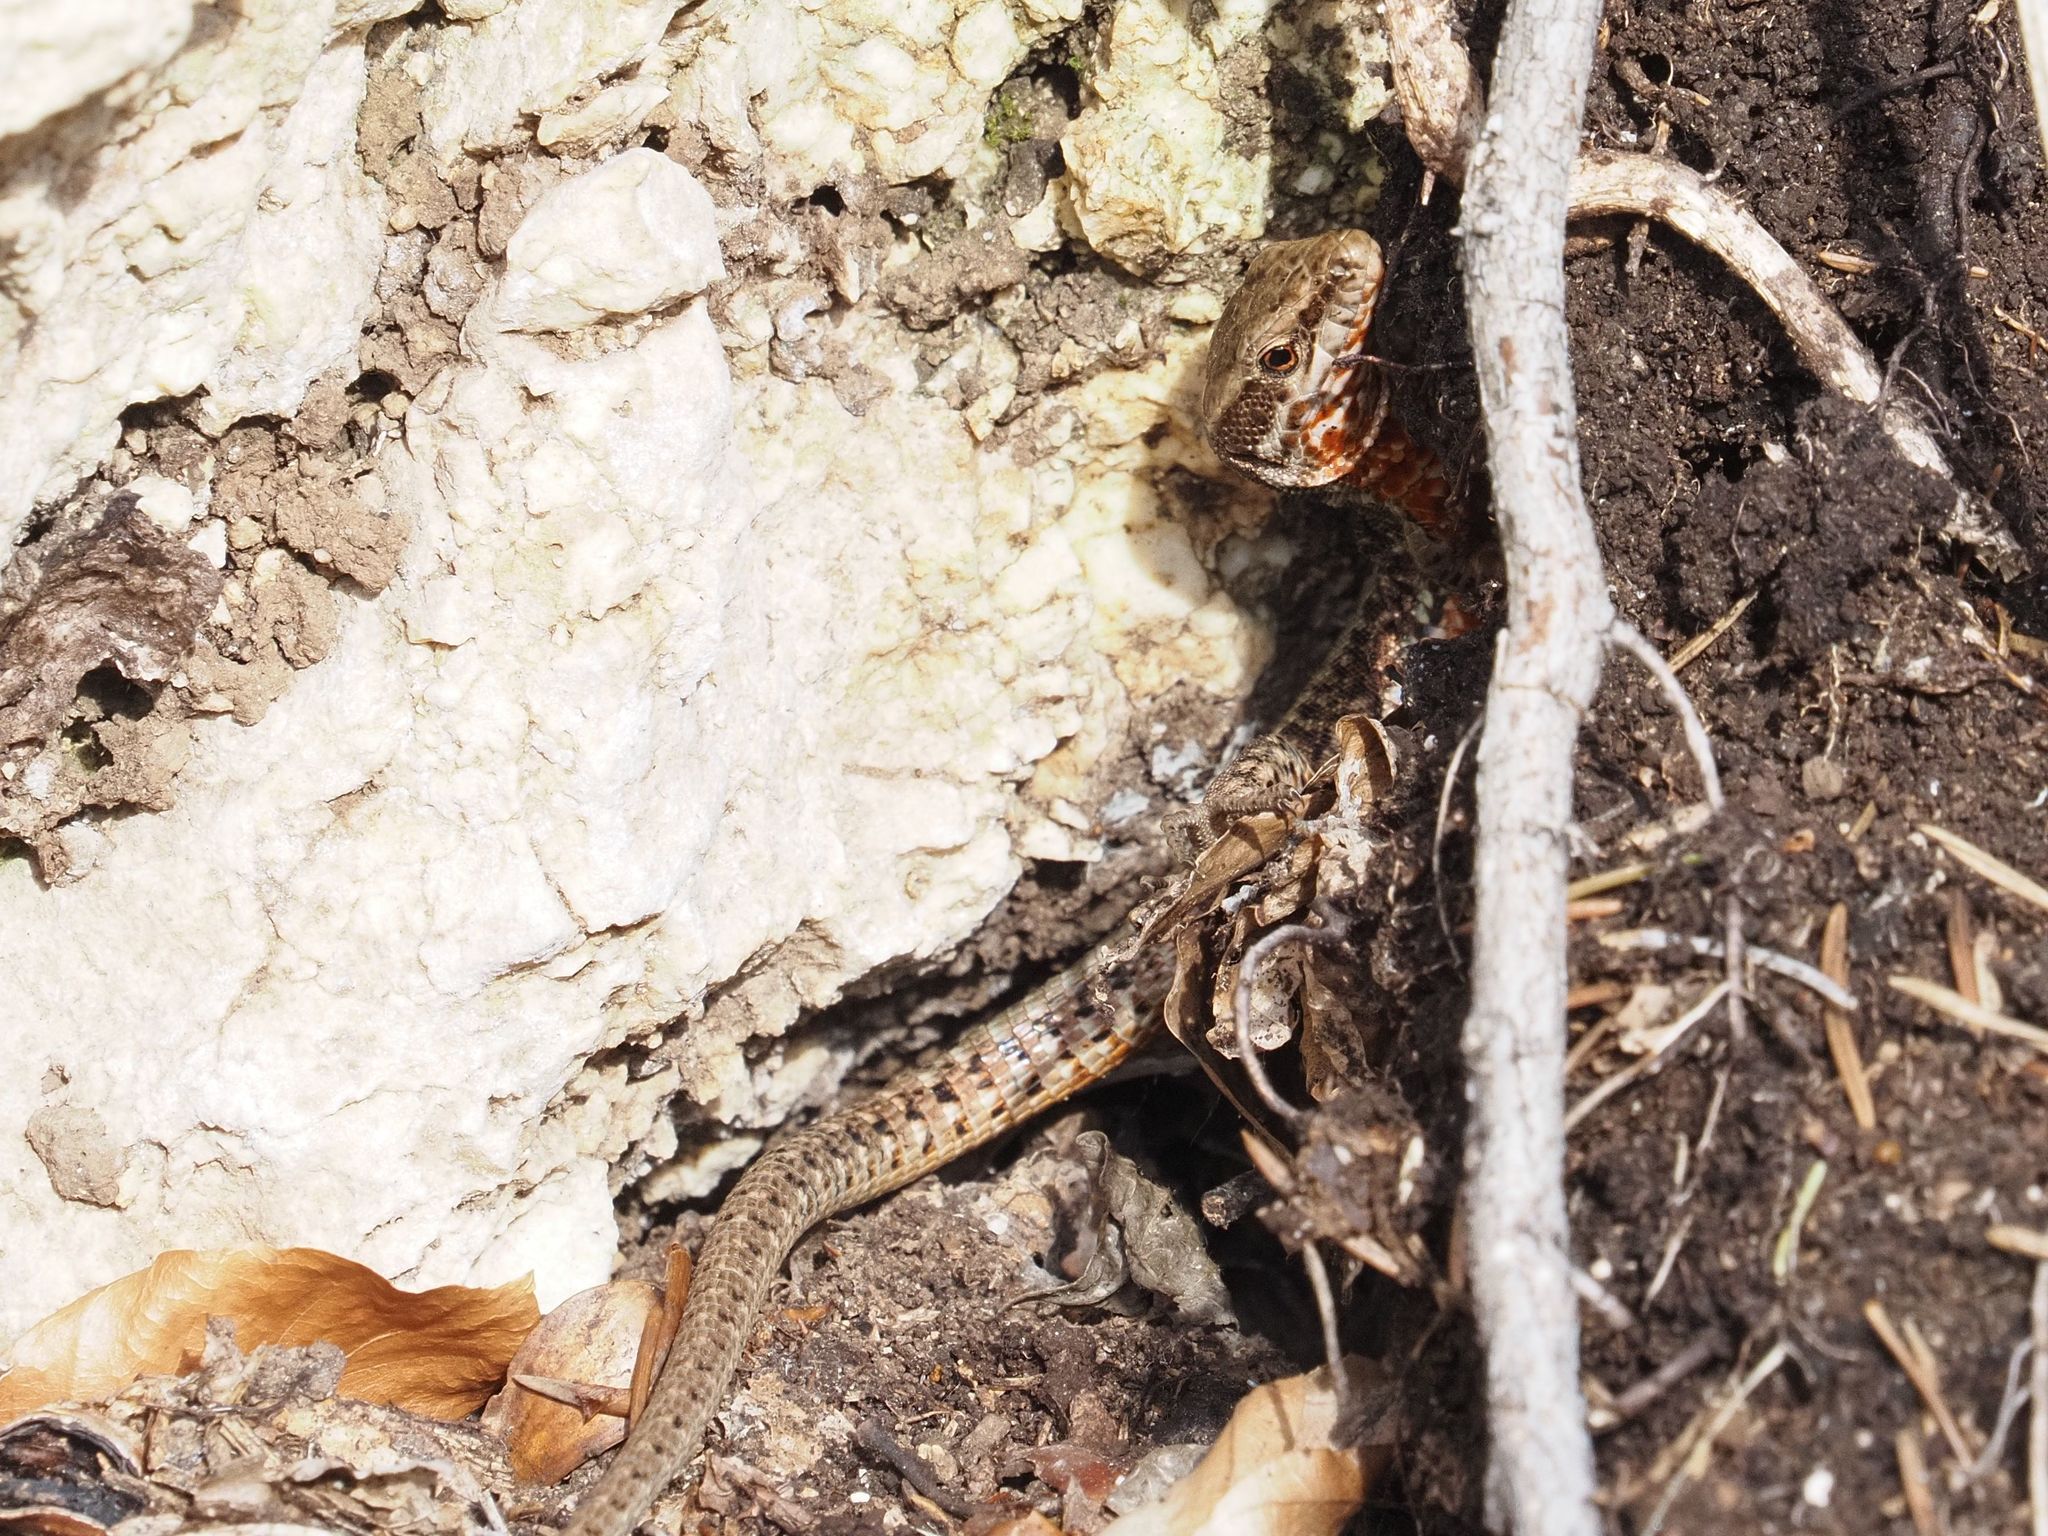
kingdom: Animalia
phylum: Chordata
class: Squamata
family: Lacertidae
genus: Podarcis
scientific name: Podarcis muralis
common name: Common wall lizard
